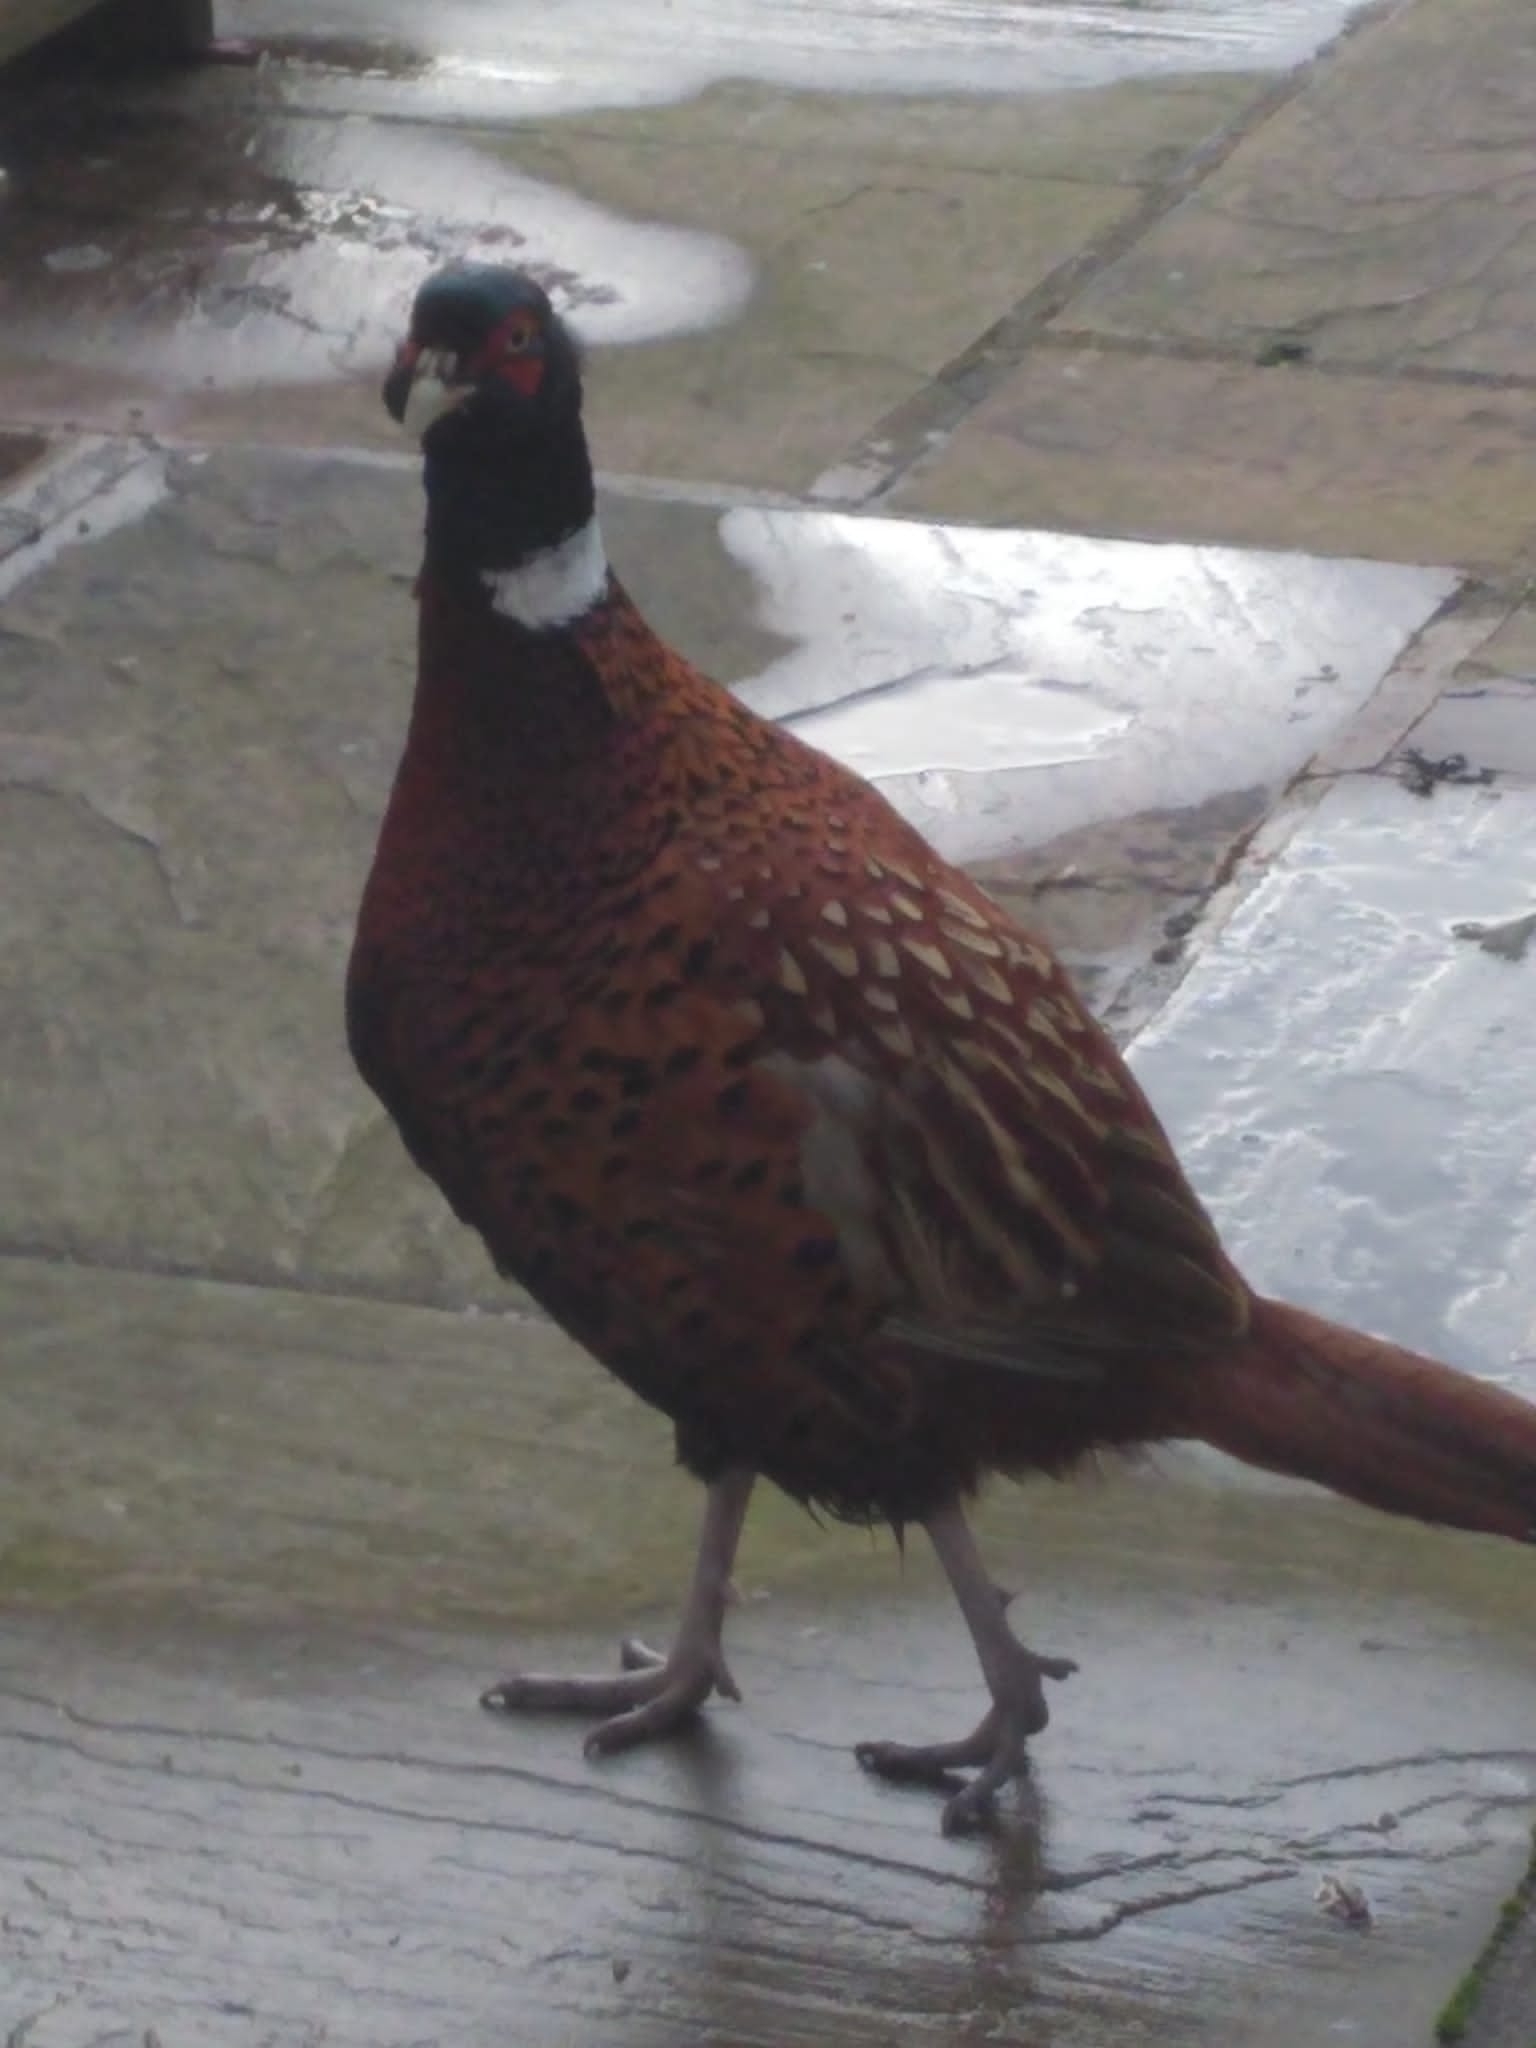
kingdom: Animalia
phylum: Chordata
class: Aves
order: Galliformes
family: Phasianidae
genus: Phasianus
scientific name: Phasianus colchicus
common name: Common pheasant
